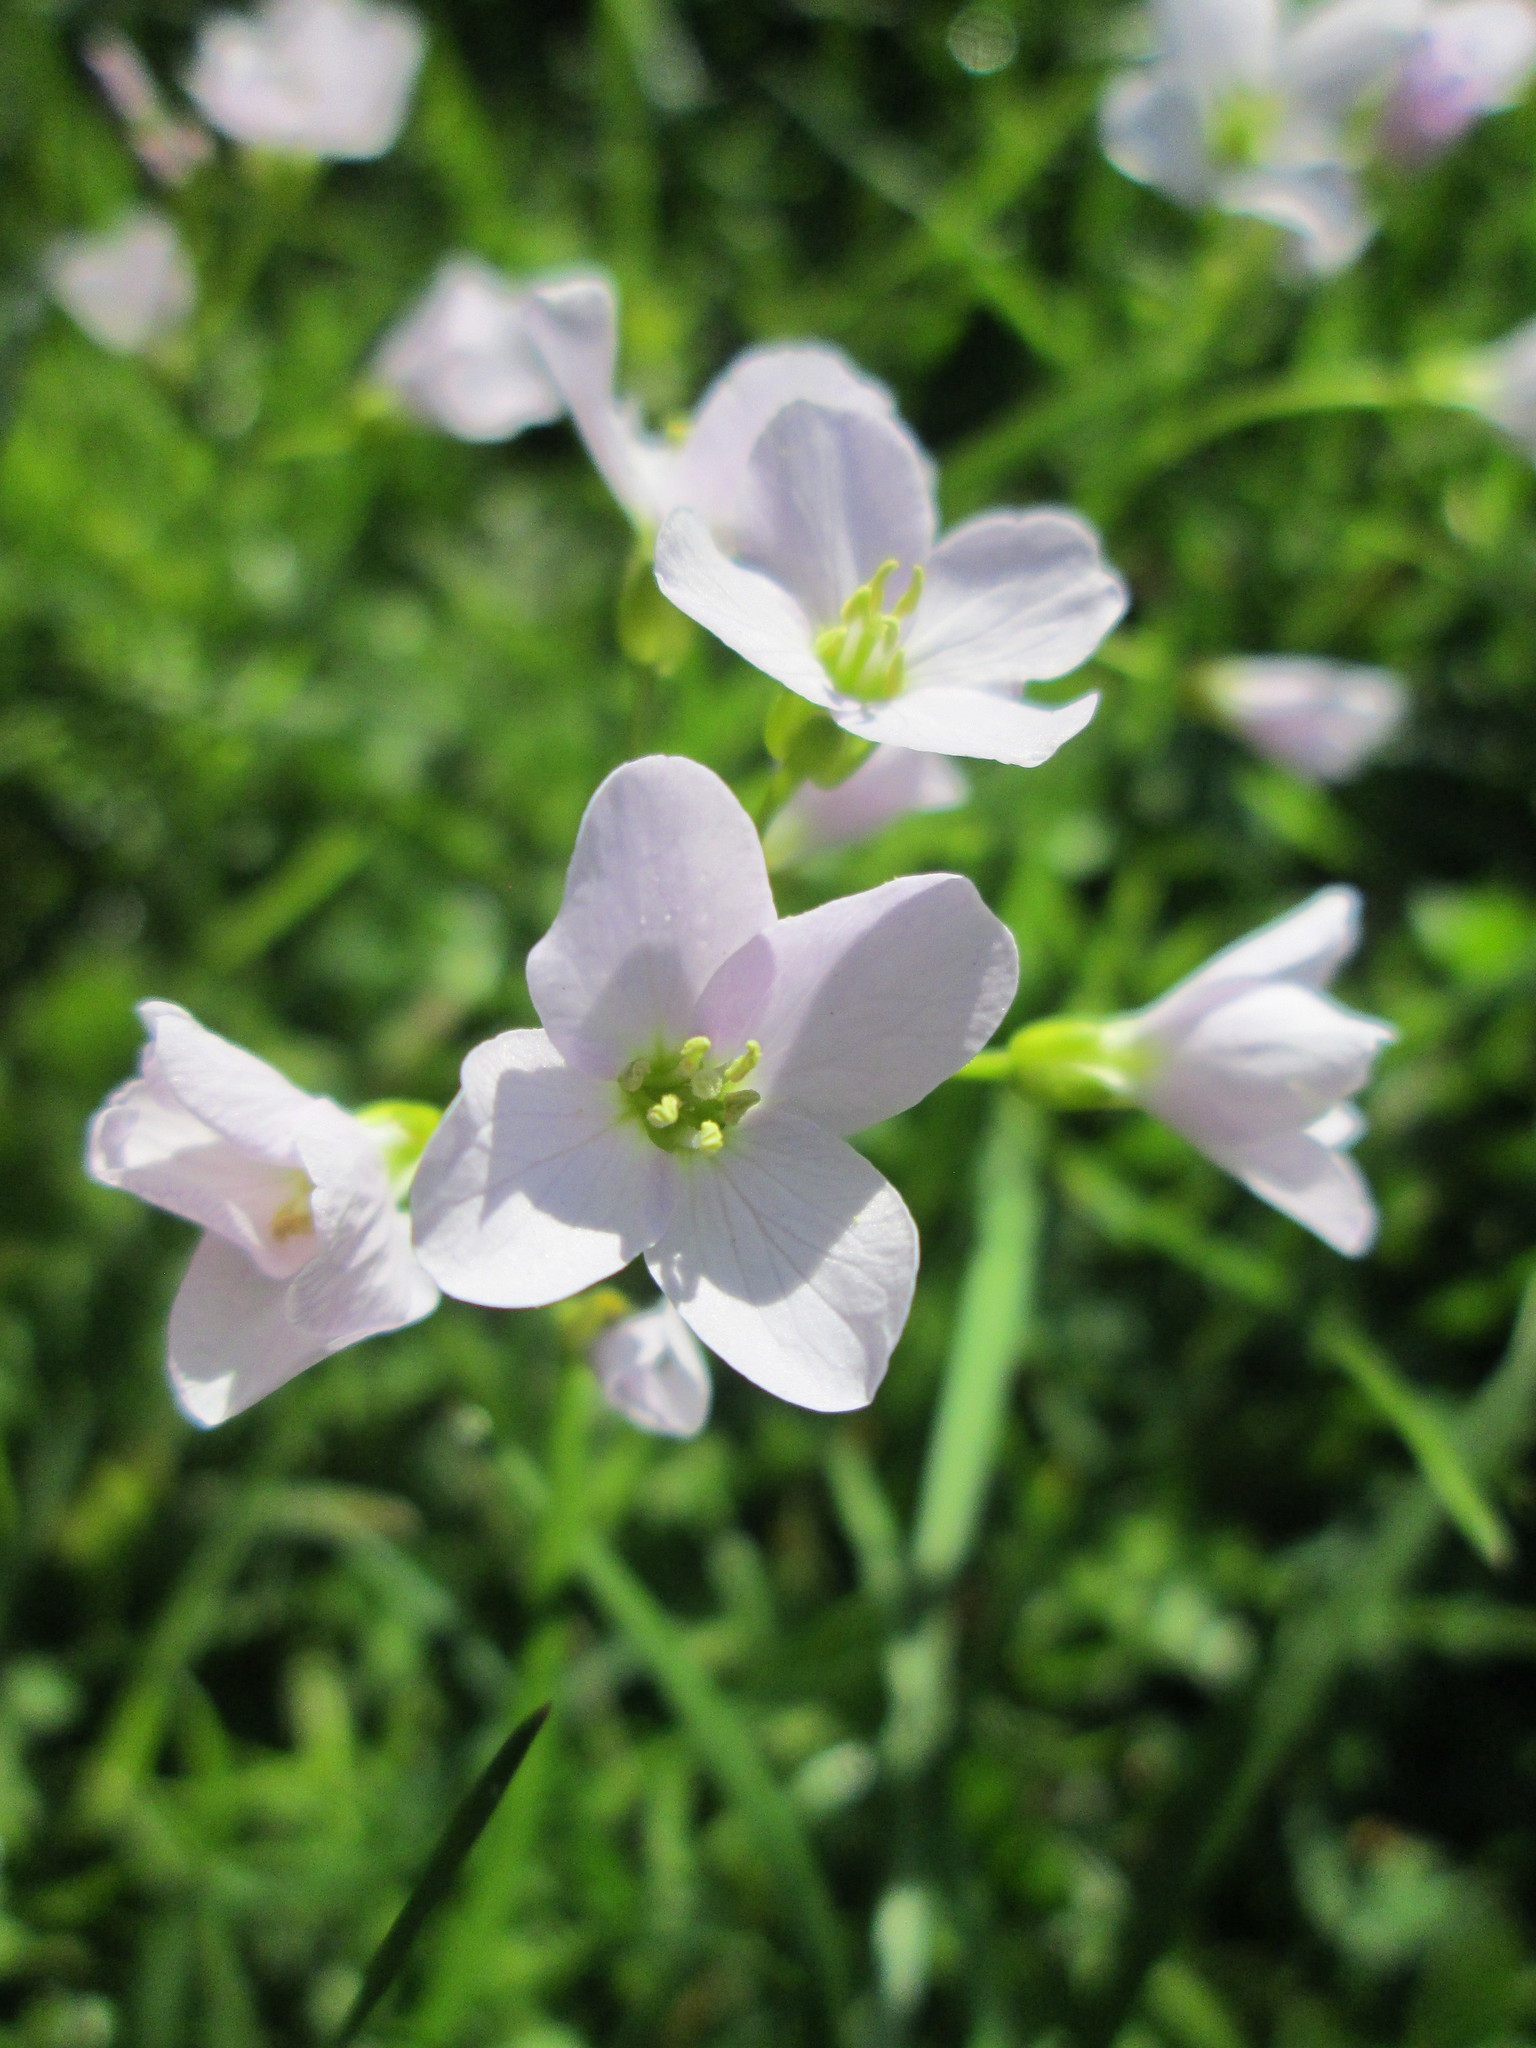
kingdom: Plantae
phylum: Tracheophyta
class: Magnoliopsida
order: Brassicales
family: Brassicaceae
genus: Cardamine
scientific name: Cardamine pratensis
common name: Cuckoo flower
